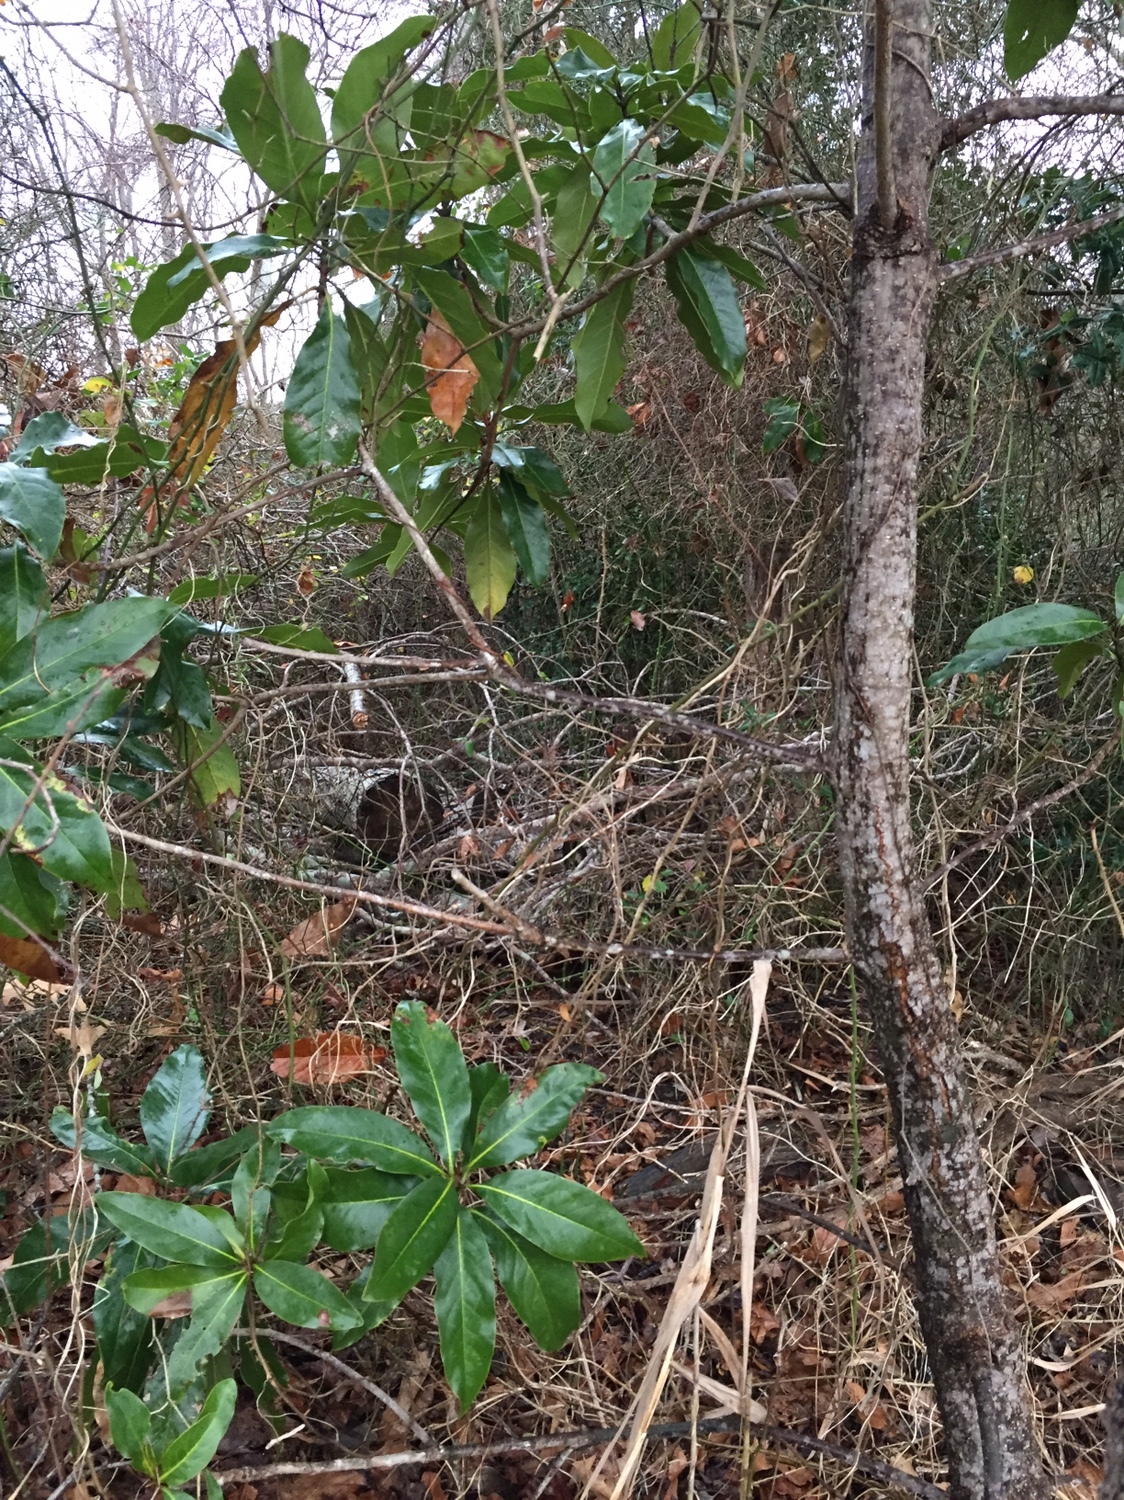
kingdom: Plantae
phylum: Tracheophyta
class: Magnoliopsida
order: Magnoliales
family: Magnoliaceae
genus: Magnolia
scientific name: Magnolia grandiflora
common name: Southern magnolia
